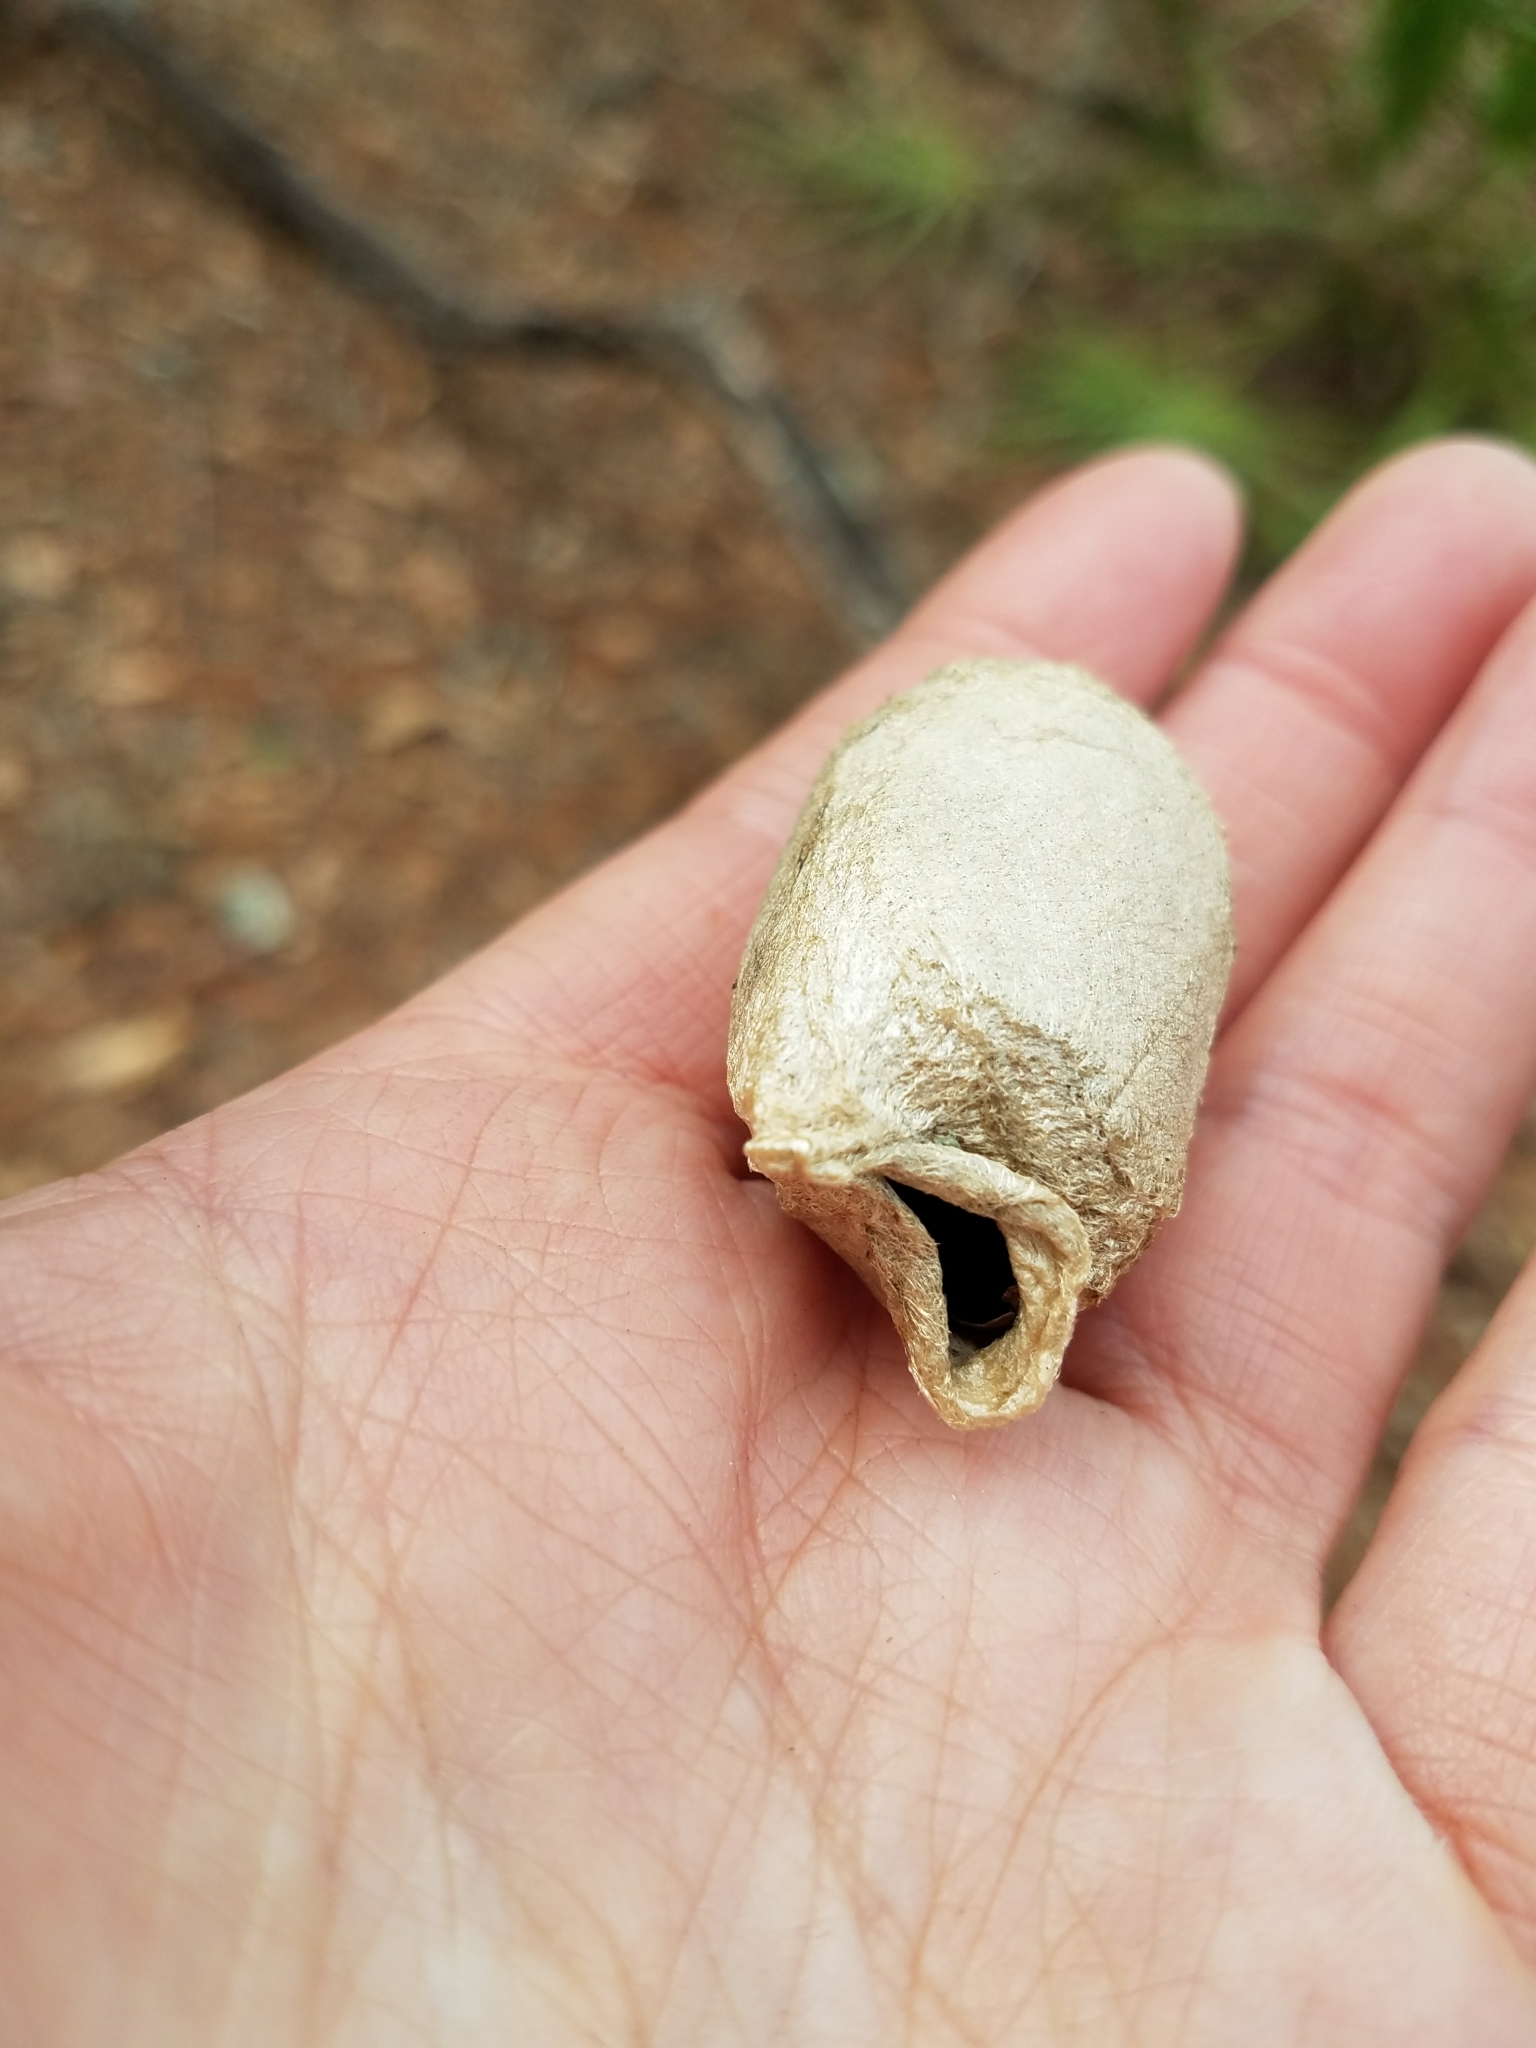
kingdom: Animalia
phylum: Arthropoda
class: Insecta
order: Lepidoptera
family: Saturniidae
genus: Antheraea
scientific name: Antheraea polyphemus
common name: Polyphemus moth
